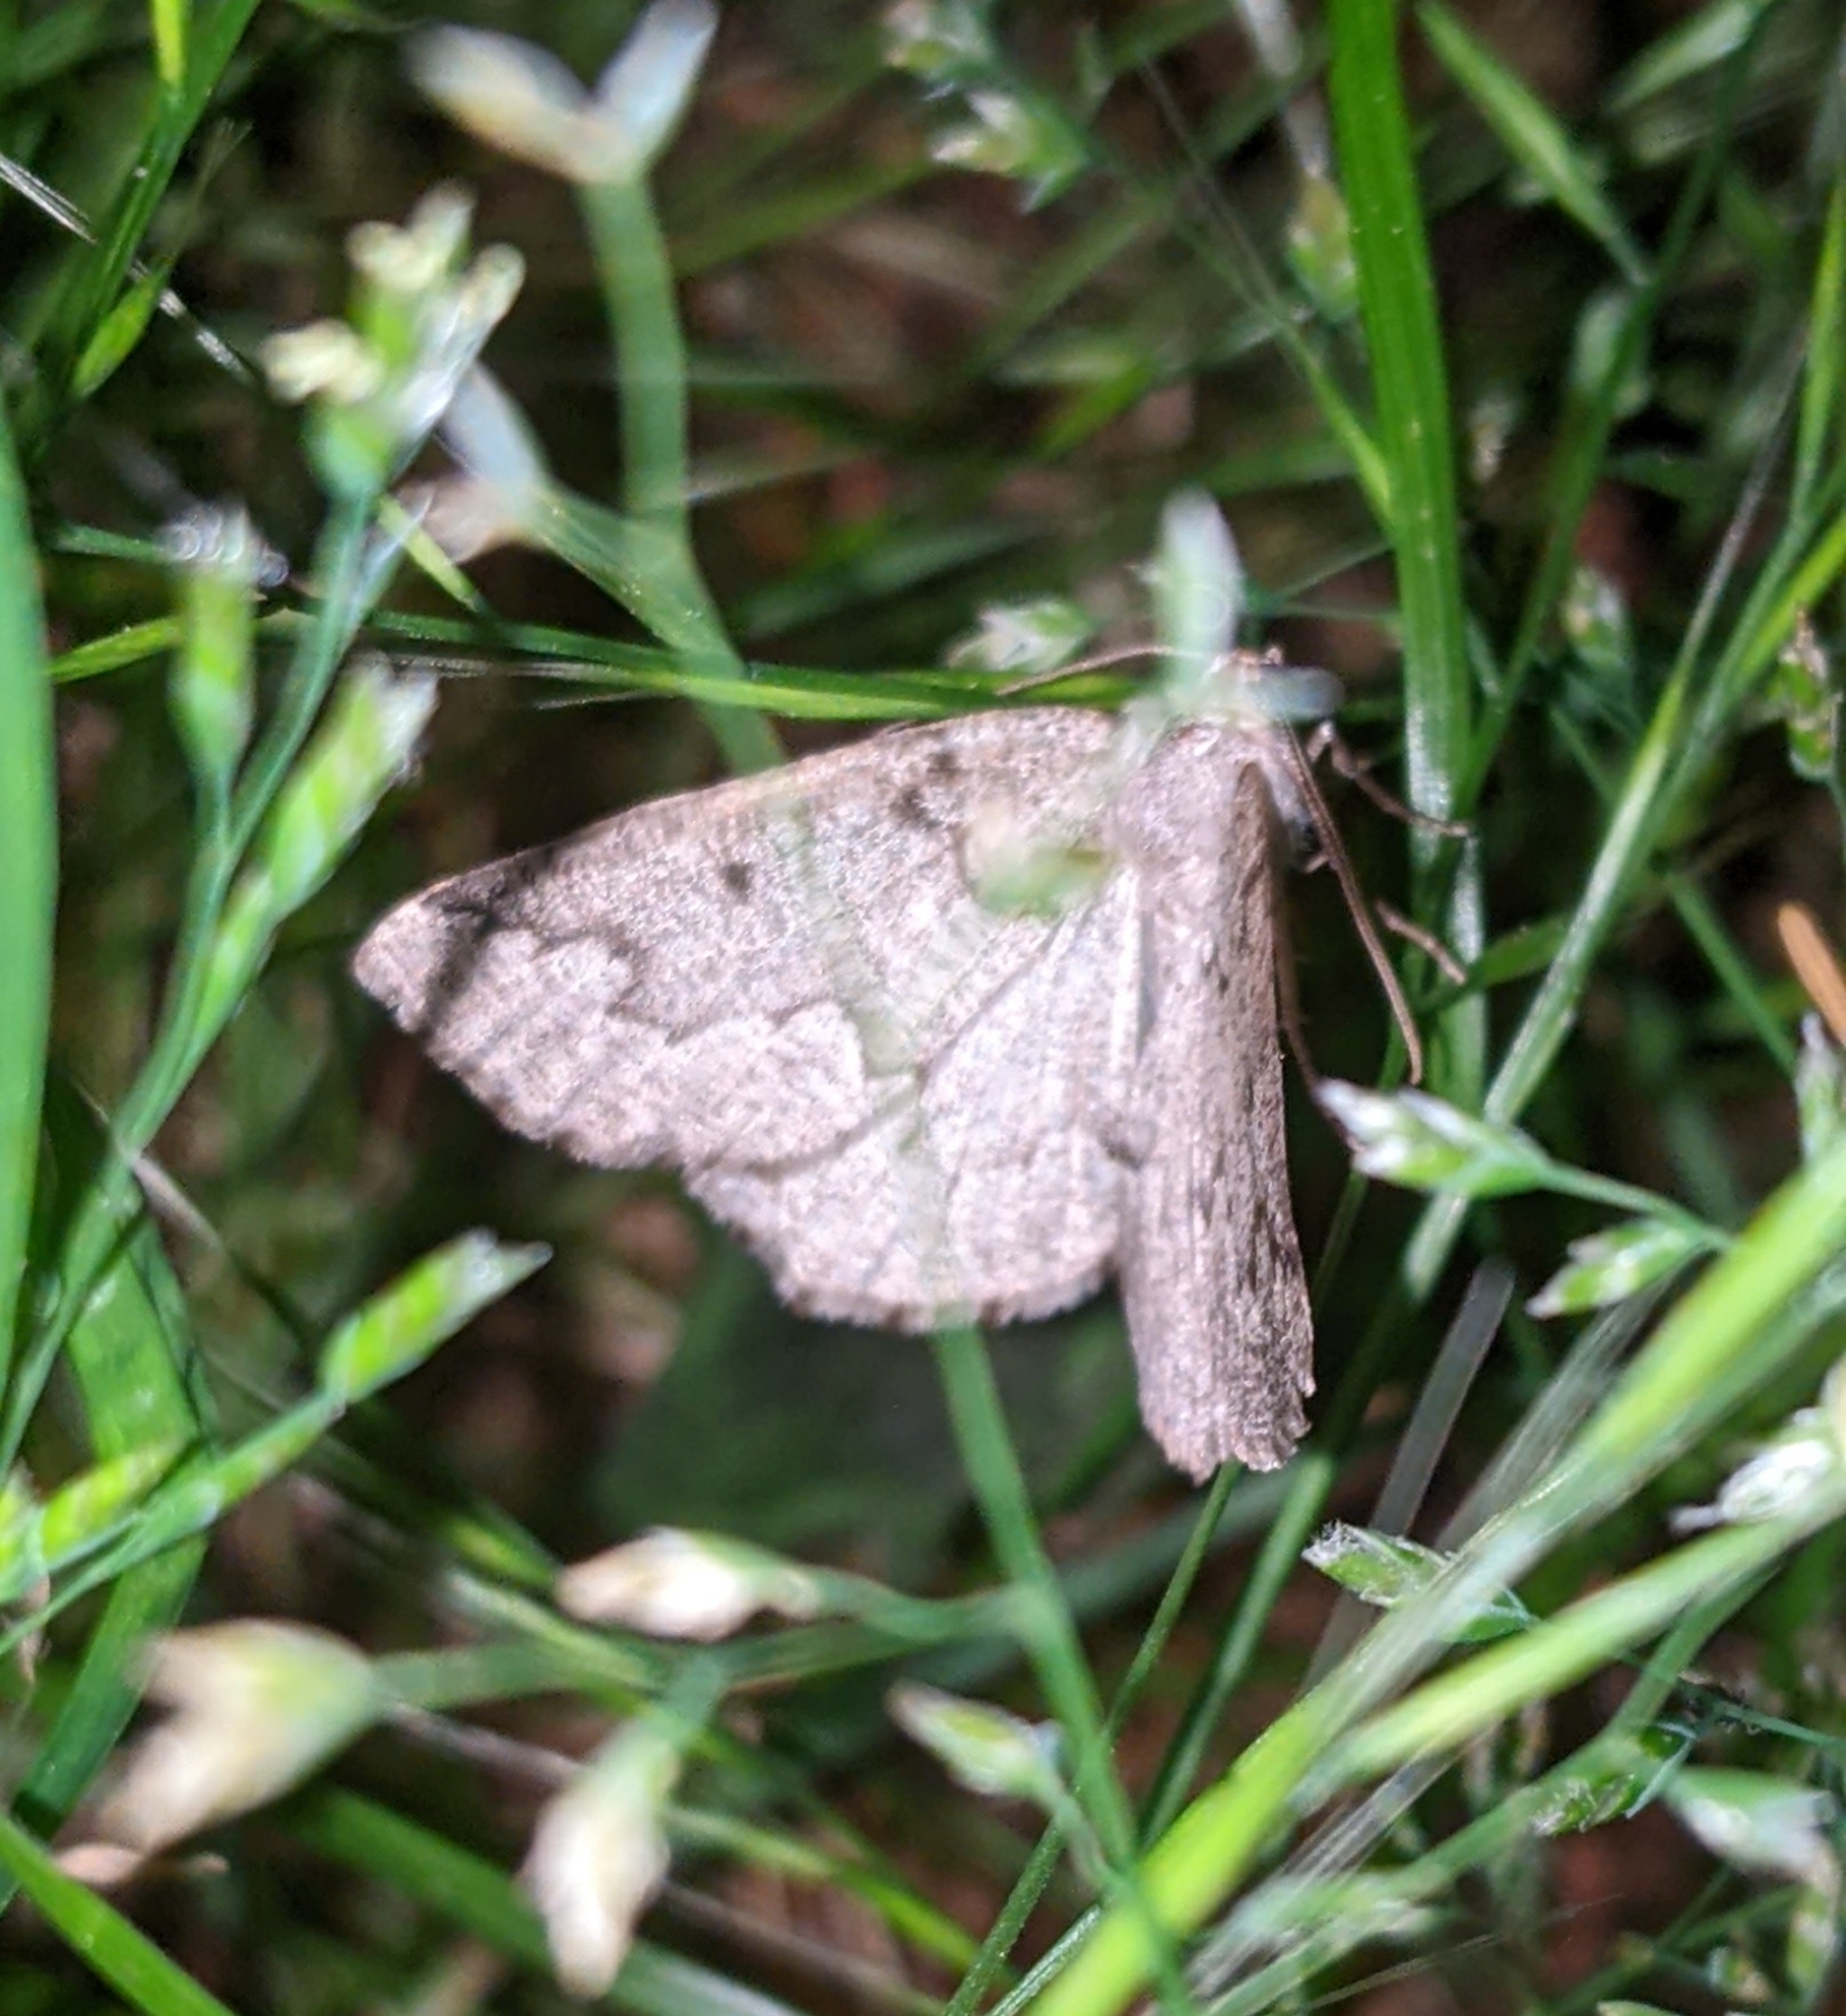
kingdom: Animalia
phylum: Arthropoda
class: Insecta
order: Lepidoptera
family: Geometridae
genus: Sabulodes
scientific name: Sabulodes
